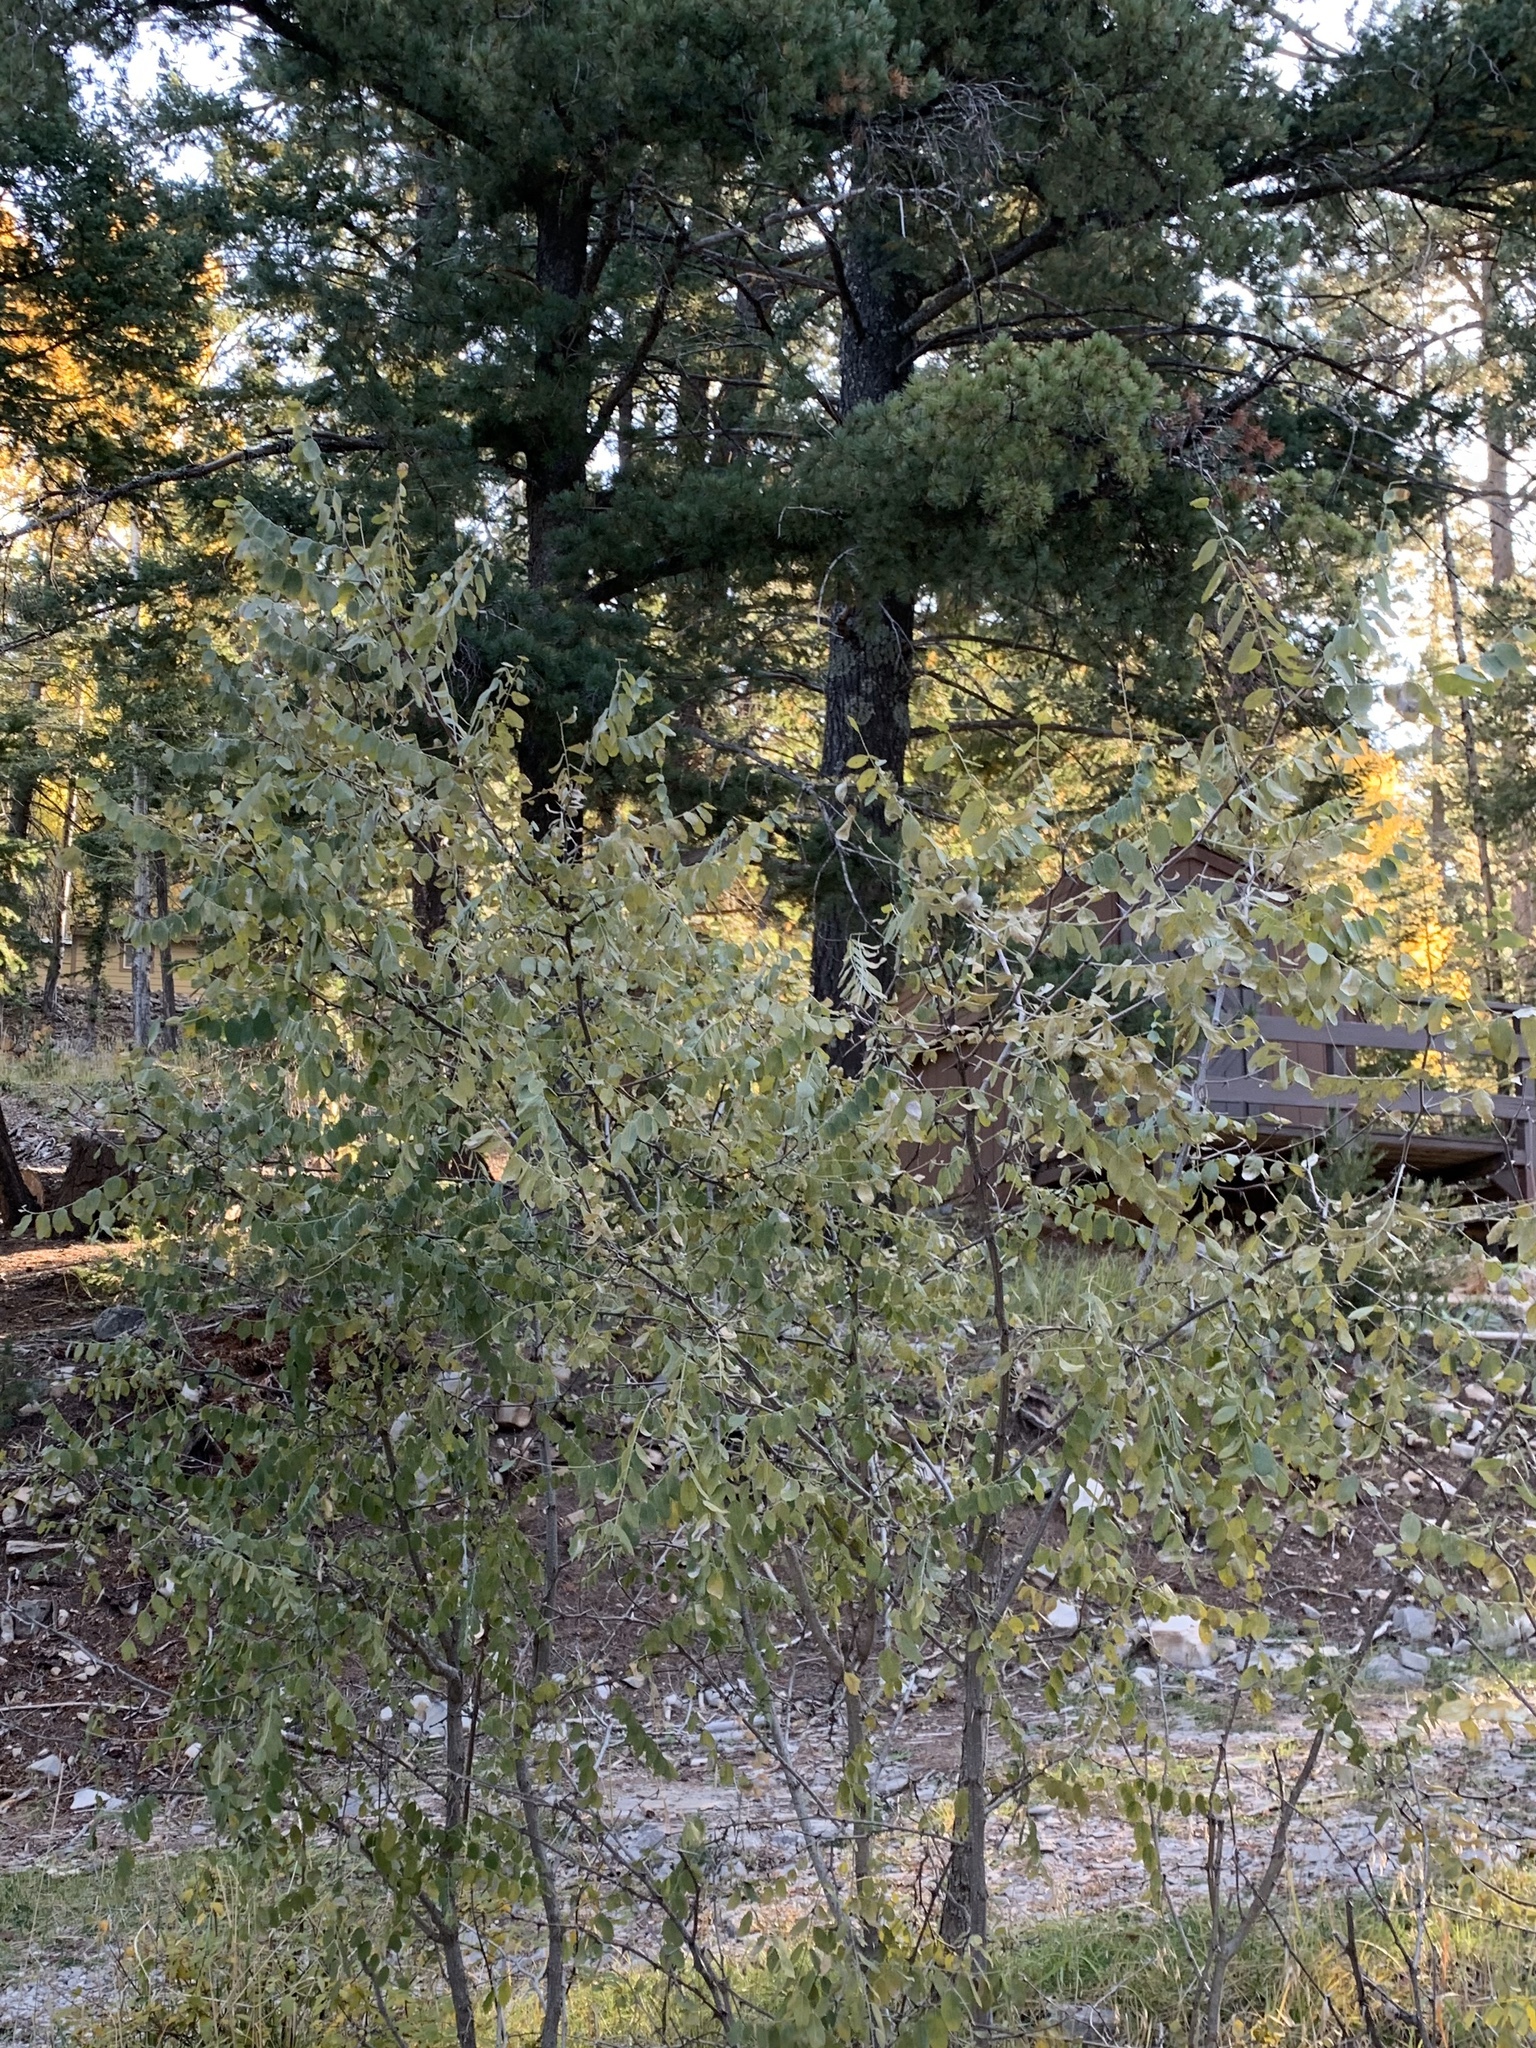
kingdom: Plantae
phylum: Tracheophyta
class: Magnoliopsida
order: Fabales
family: Fabaceae
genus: Robinia
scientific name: Robinia neomexicana
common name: New mexico locust
